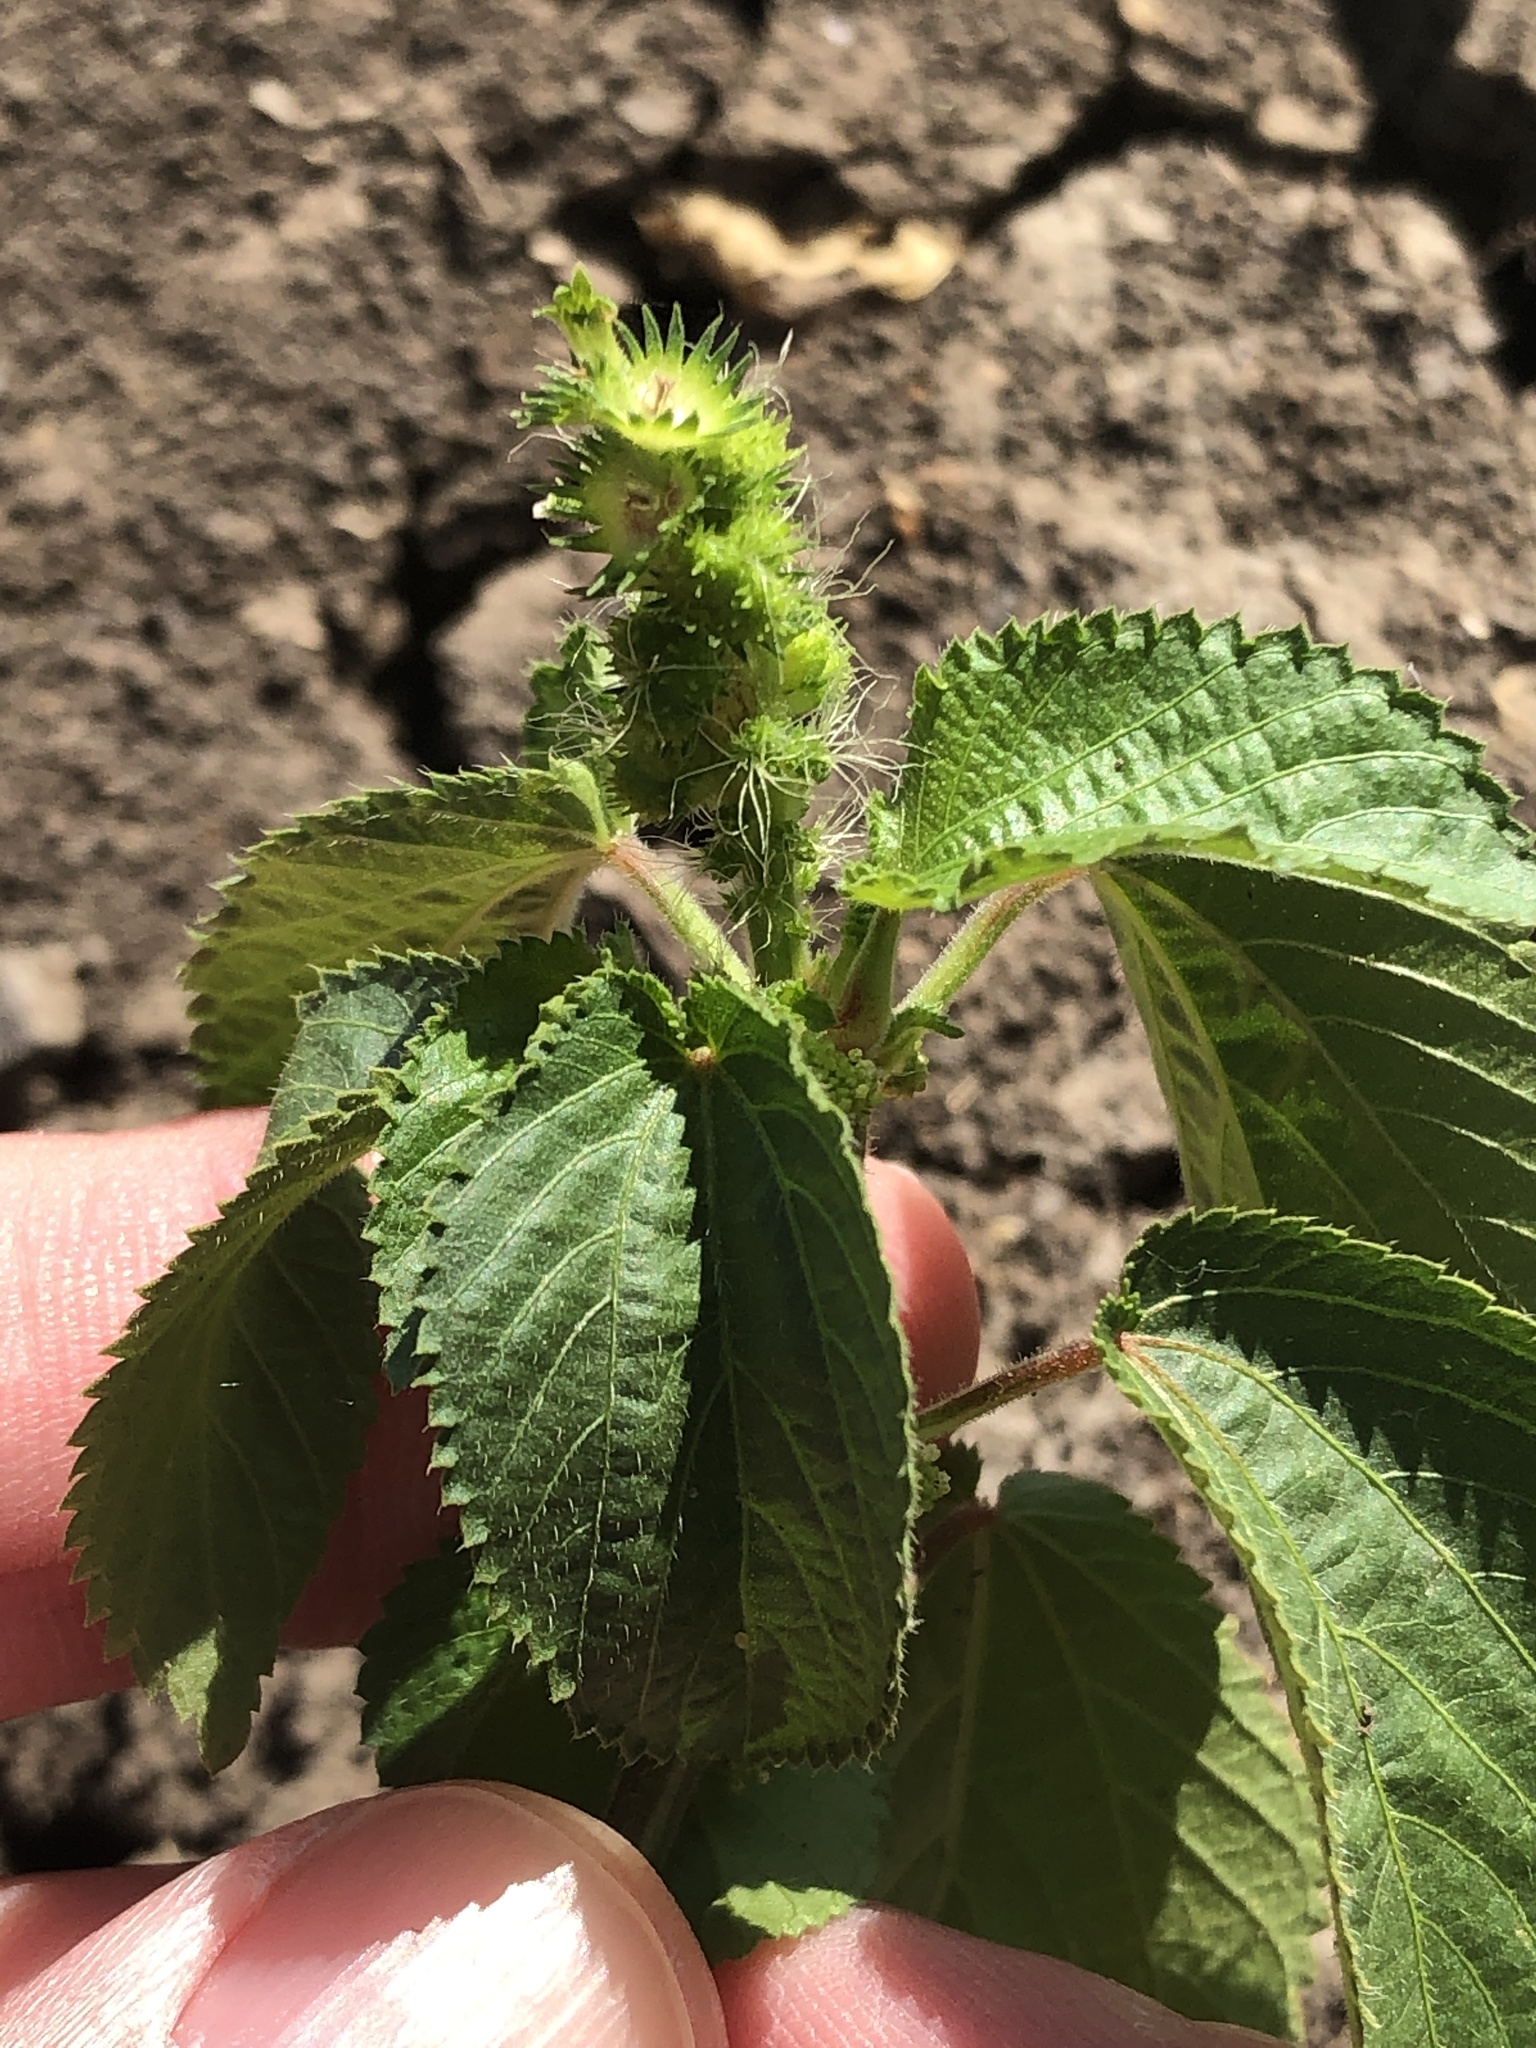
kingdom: Plantae
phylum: Tracheophyta
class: Magnoliopsida
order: Malpighiales
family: Euphorbiaceae
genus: Acalypha
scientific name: Acalypha ostryifolia
